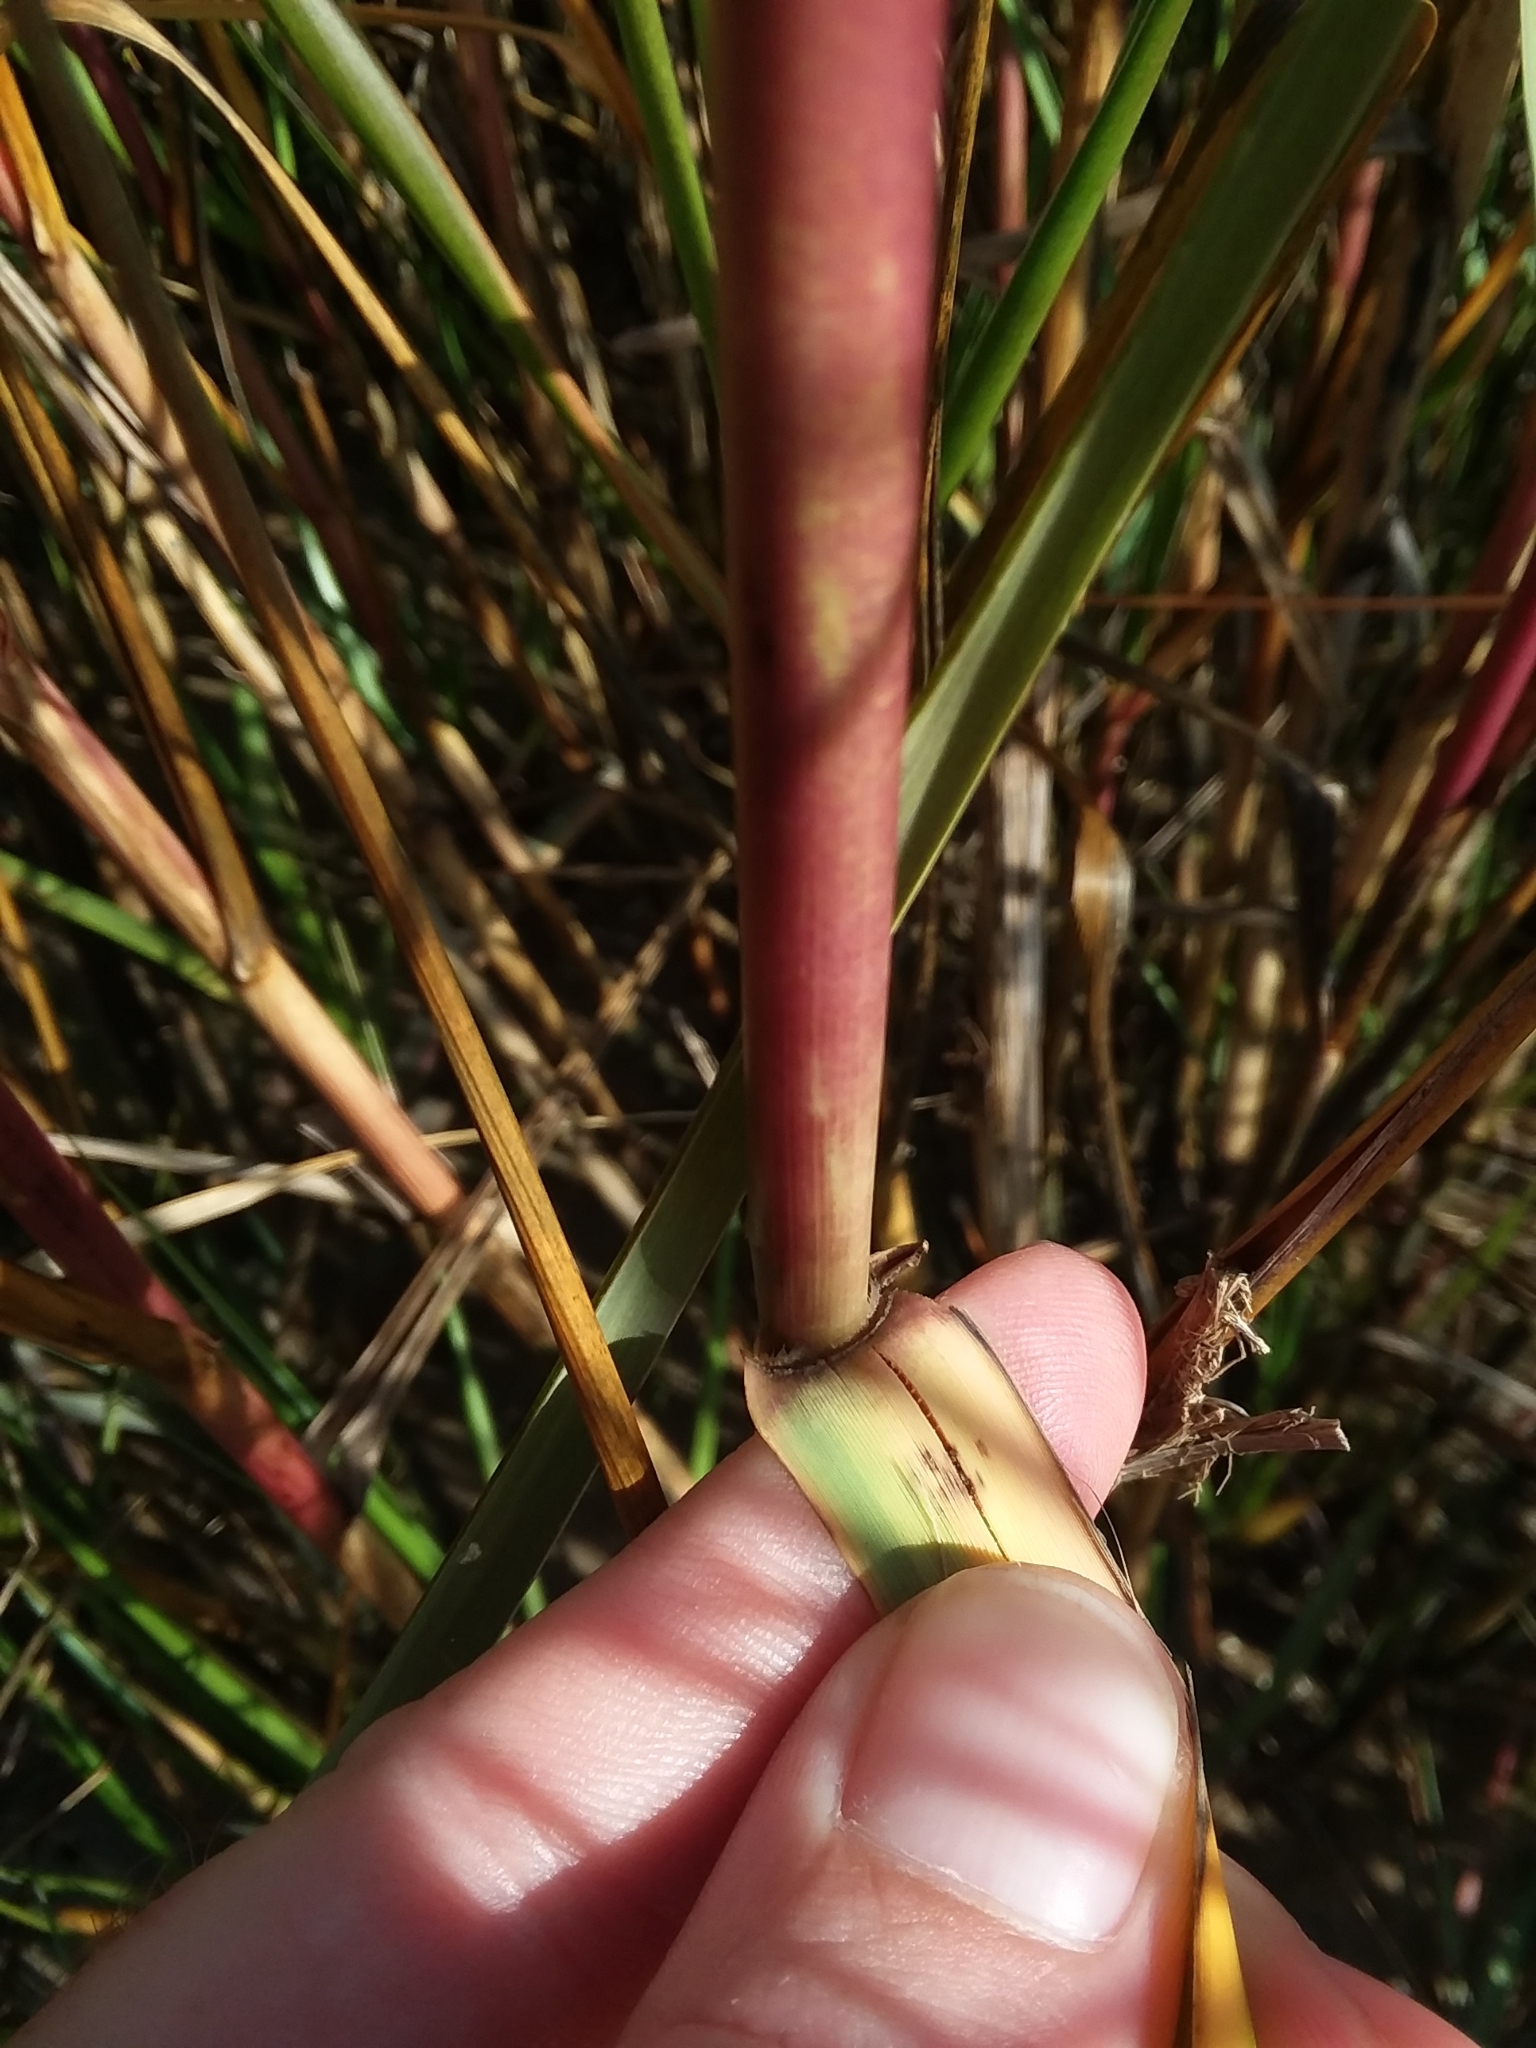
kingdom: Plantae
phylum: Tracheophyta
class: Liliopsida
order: Poales
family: Poaceae
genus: Sporobolus
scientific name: Sporobolus alterniflorus
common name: Atlantic cordgrass
